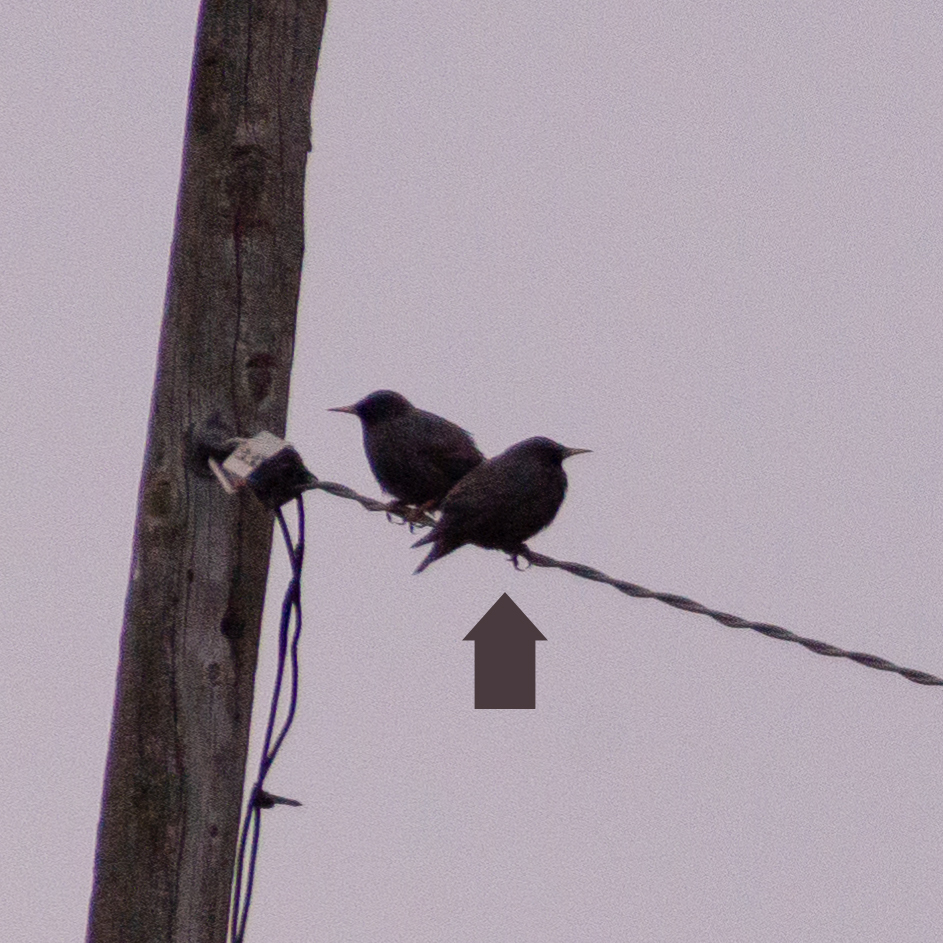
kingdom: Animalia
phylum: Chordata
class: Aves
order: Passeriformes
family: Sturnidae
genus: Sturnus
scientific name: Sturnus unicolor
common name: Spotless starling
